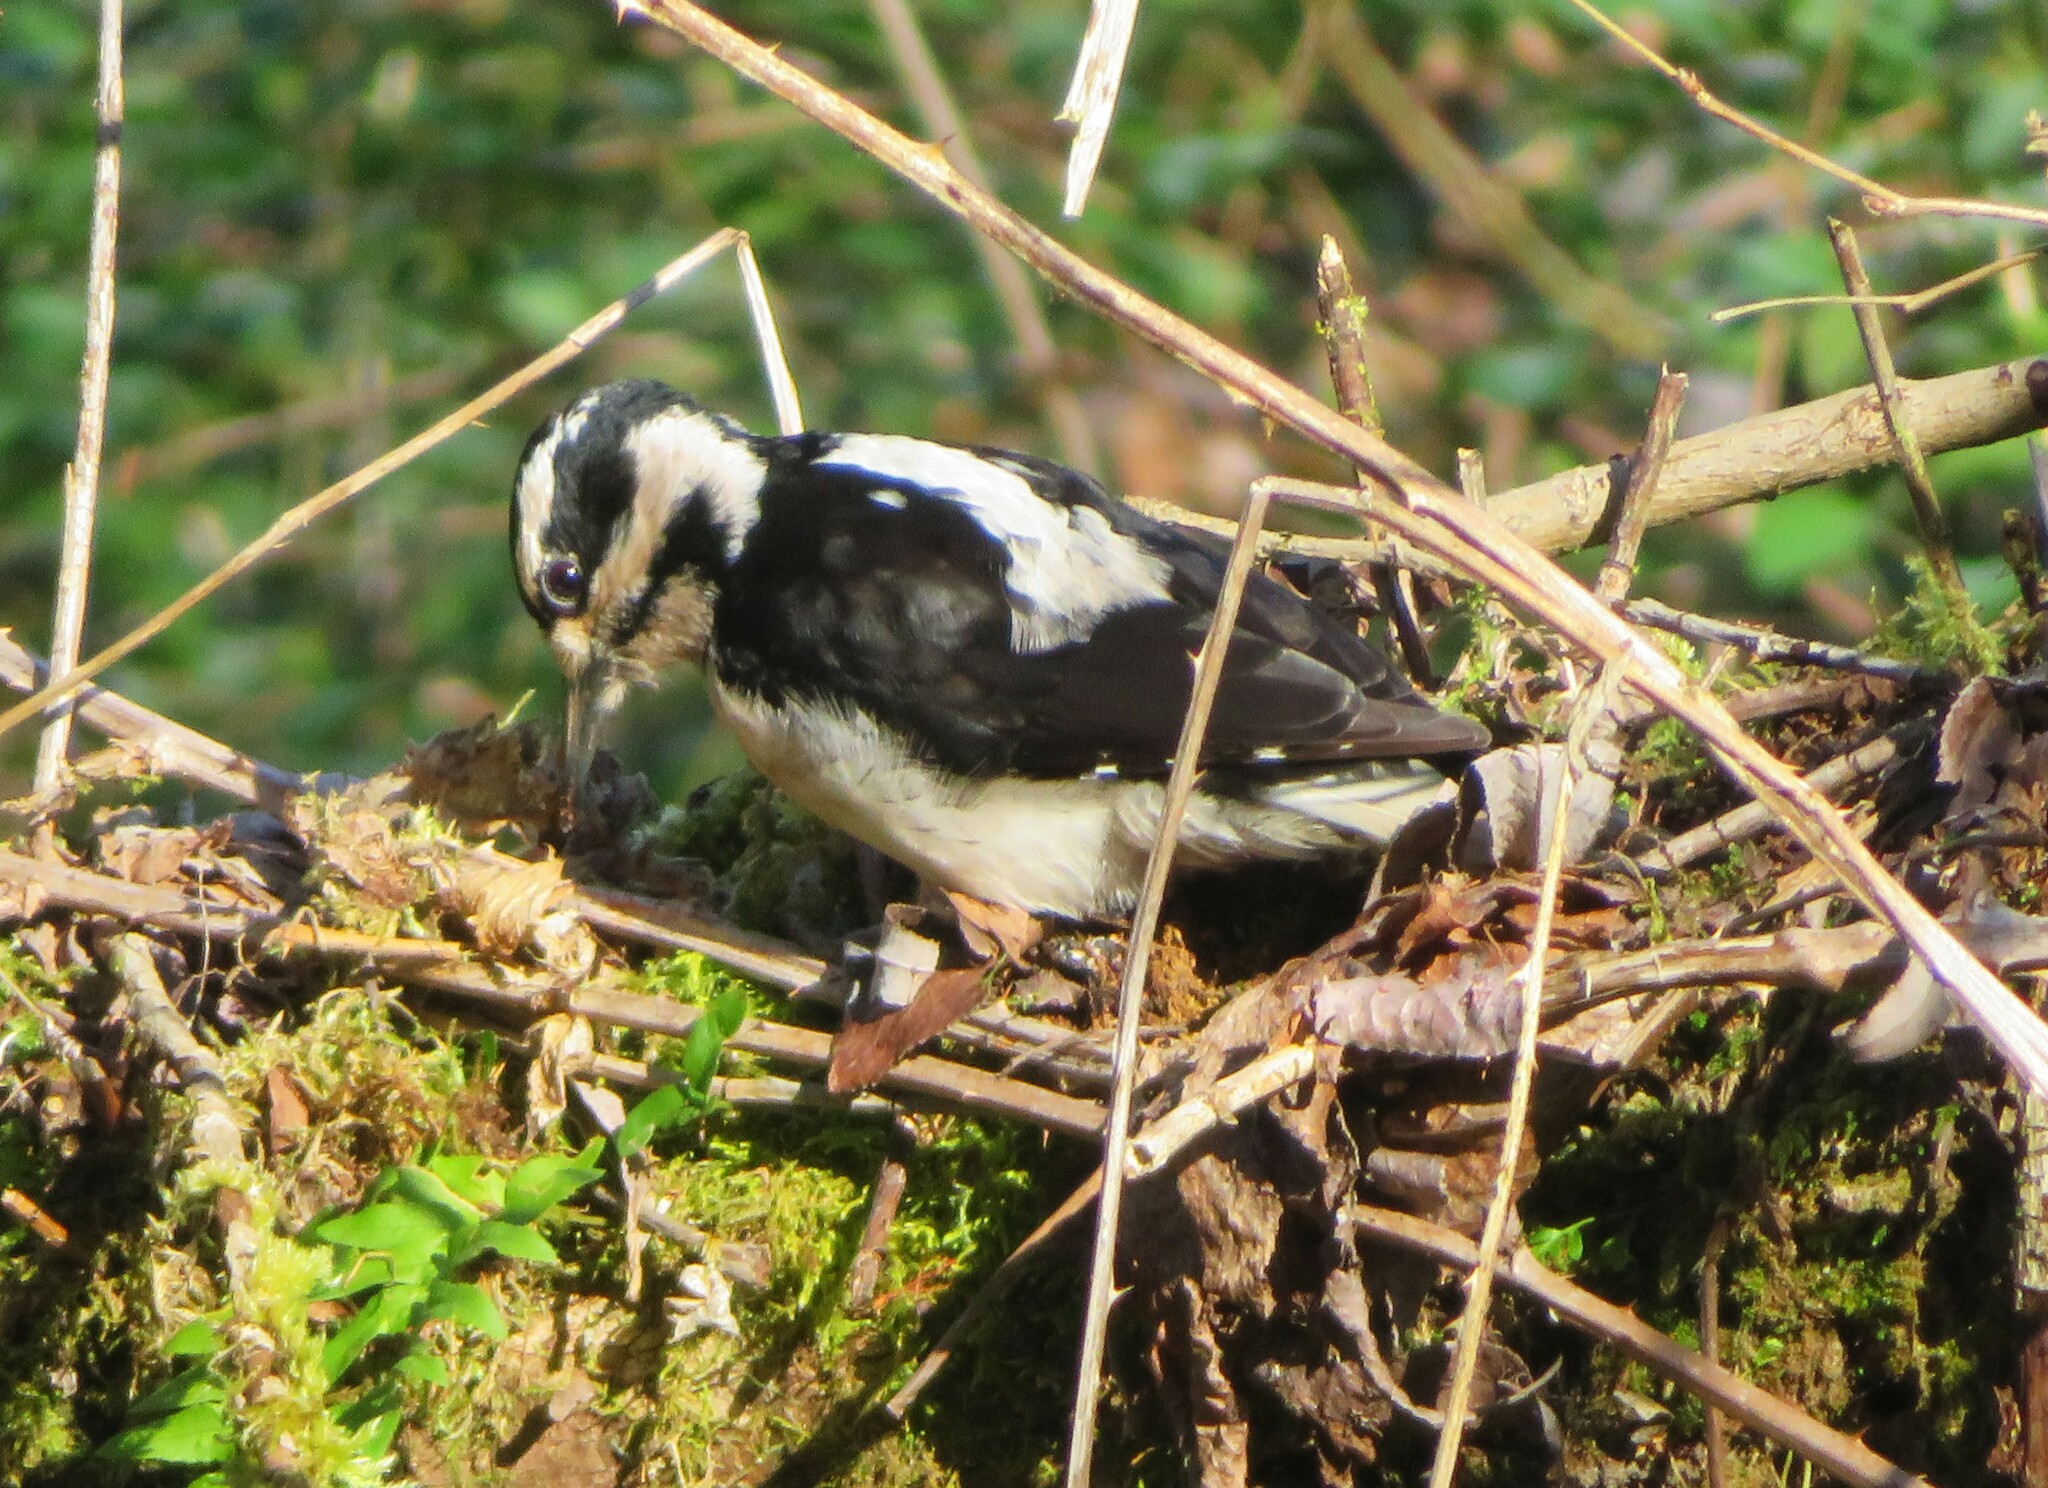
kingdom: Animalia
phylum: Chordata
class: Aves
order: Piciformes
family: Picidae
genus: Leuconotopicus
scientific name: Leuconotopicus villosus
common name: Hairy woodpecker
